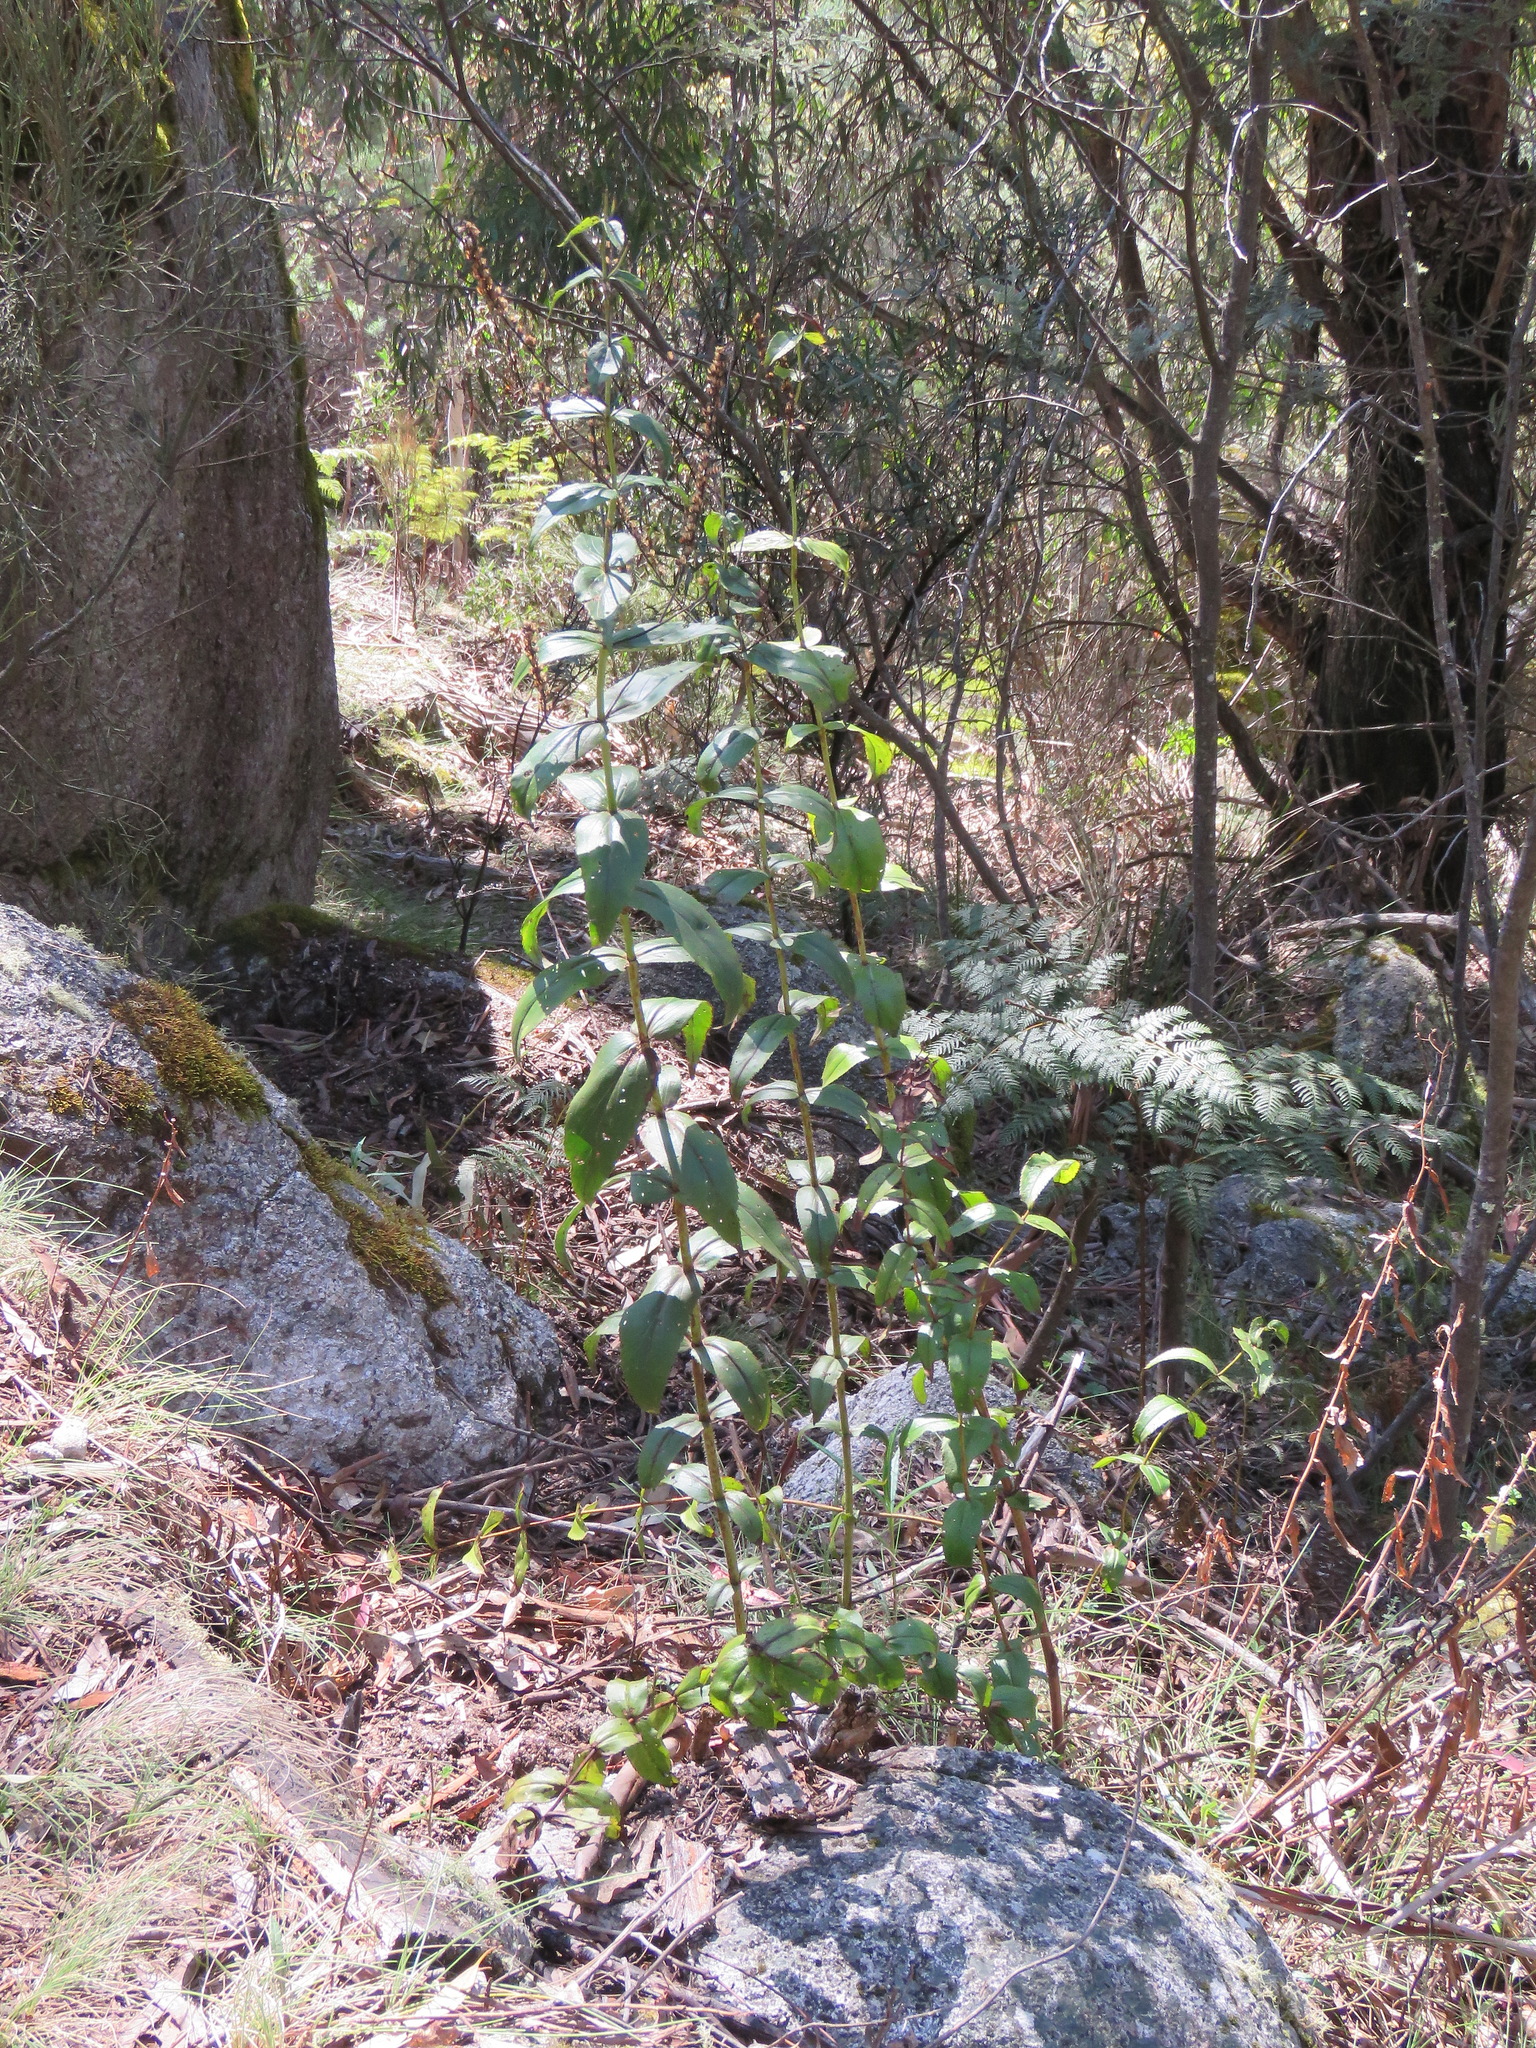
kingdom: Plantae
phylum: Tracheophyta
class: Magnoliopsida
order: Lamiales
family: Plantaginaceae
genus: Veronica
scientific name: Veronica derwentiana
